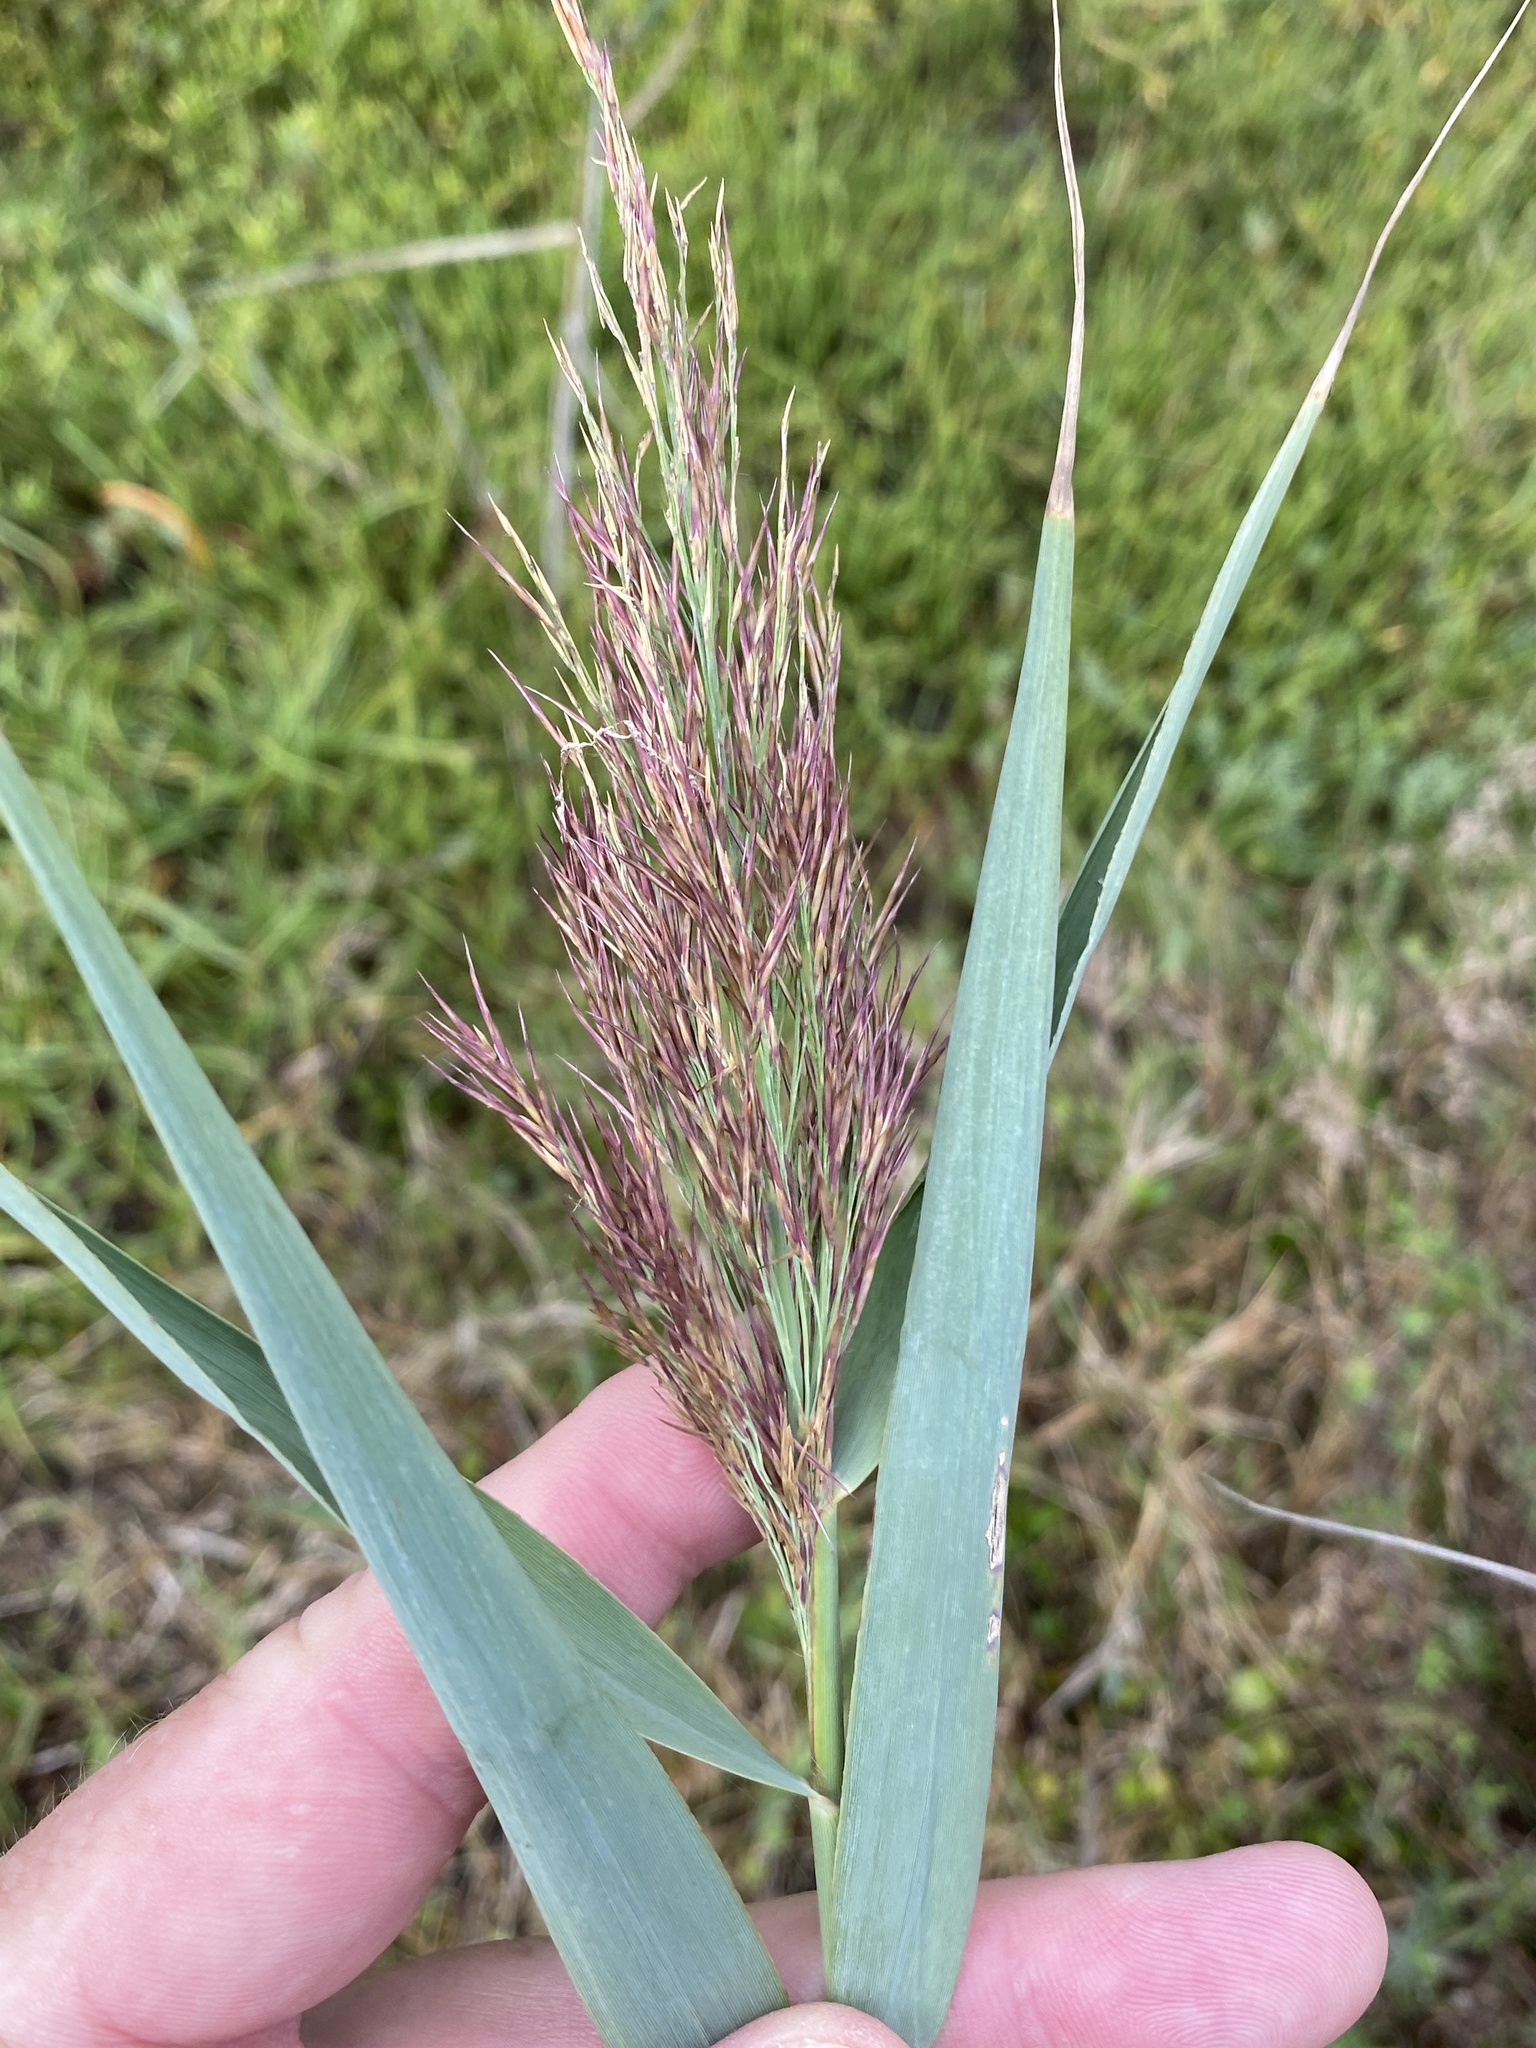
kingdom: Plantae
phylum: Tracheophyta
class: Liliopsida
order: Poales
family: Poaceae
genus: Phragmites
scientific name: Phragmites australis
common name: Common reed
